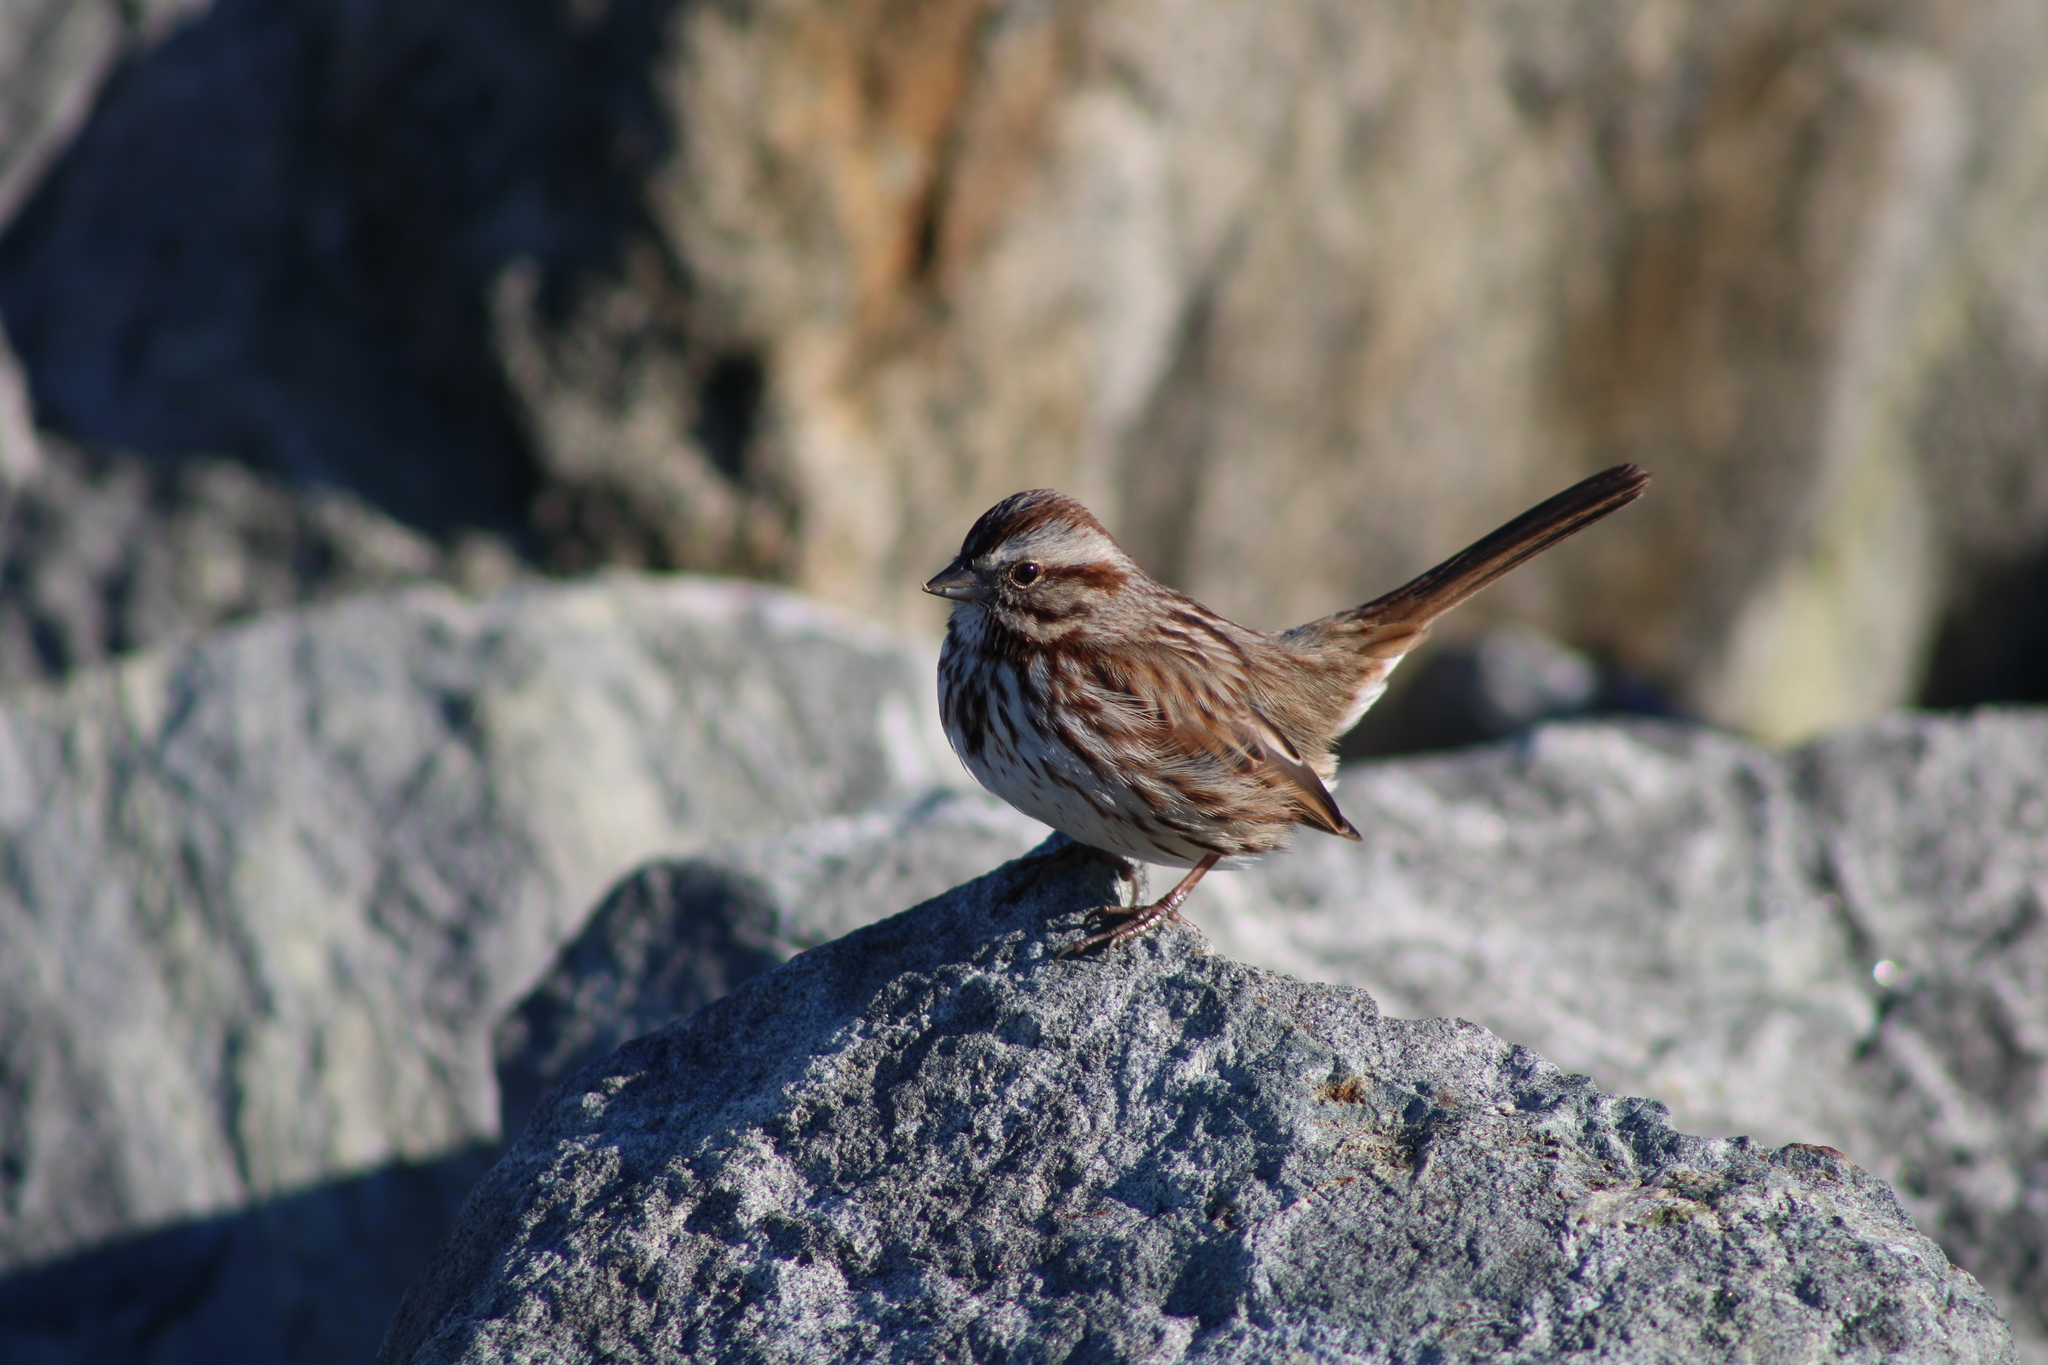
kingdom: Animalia
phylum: Chordata
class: Aves
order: Passeriformes
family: Passerellidae
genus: Melospiza
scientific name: Melospiza melodia
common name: Song sparrow
